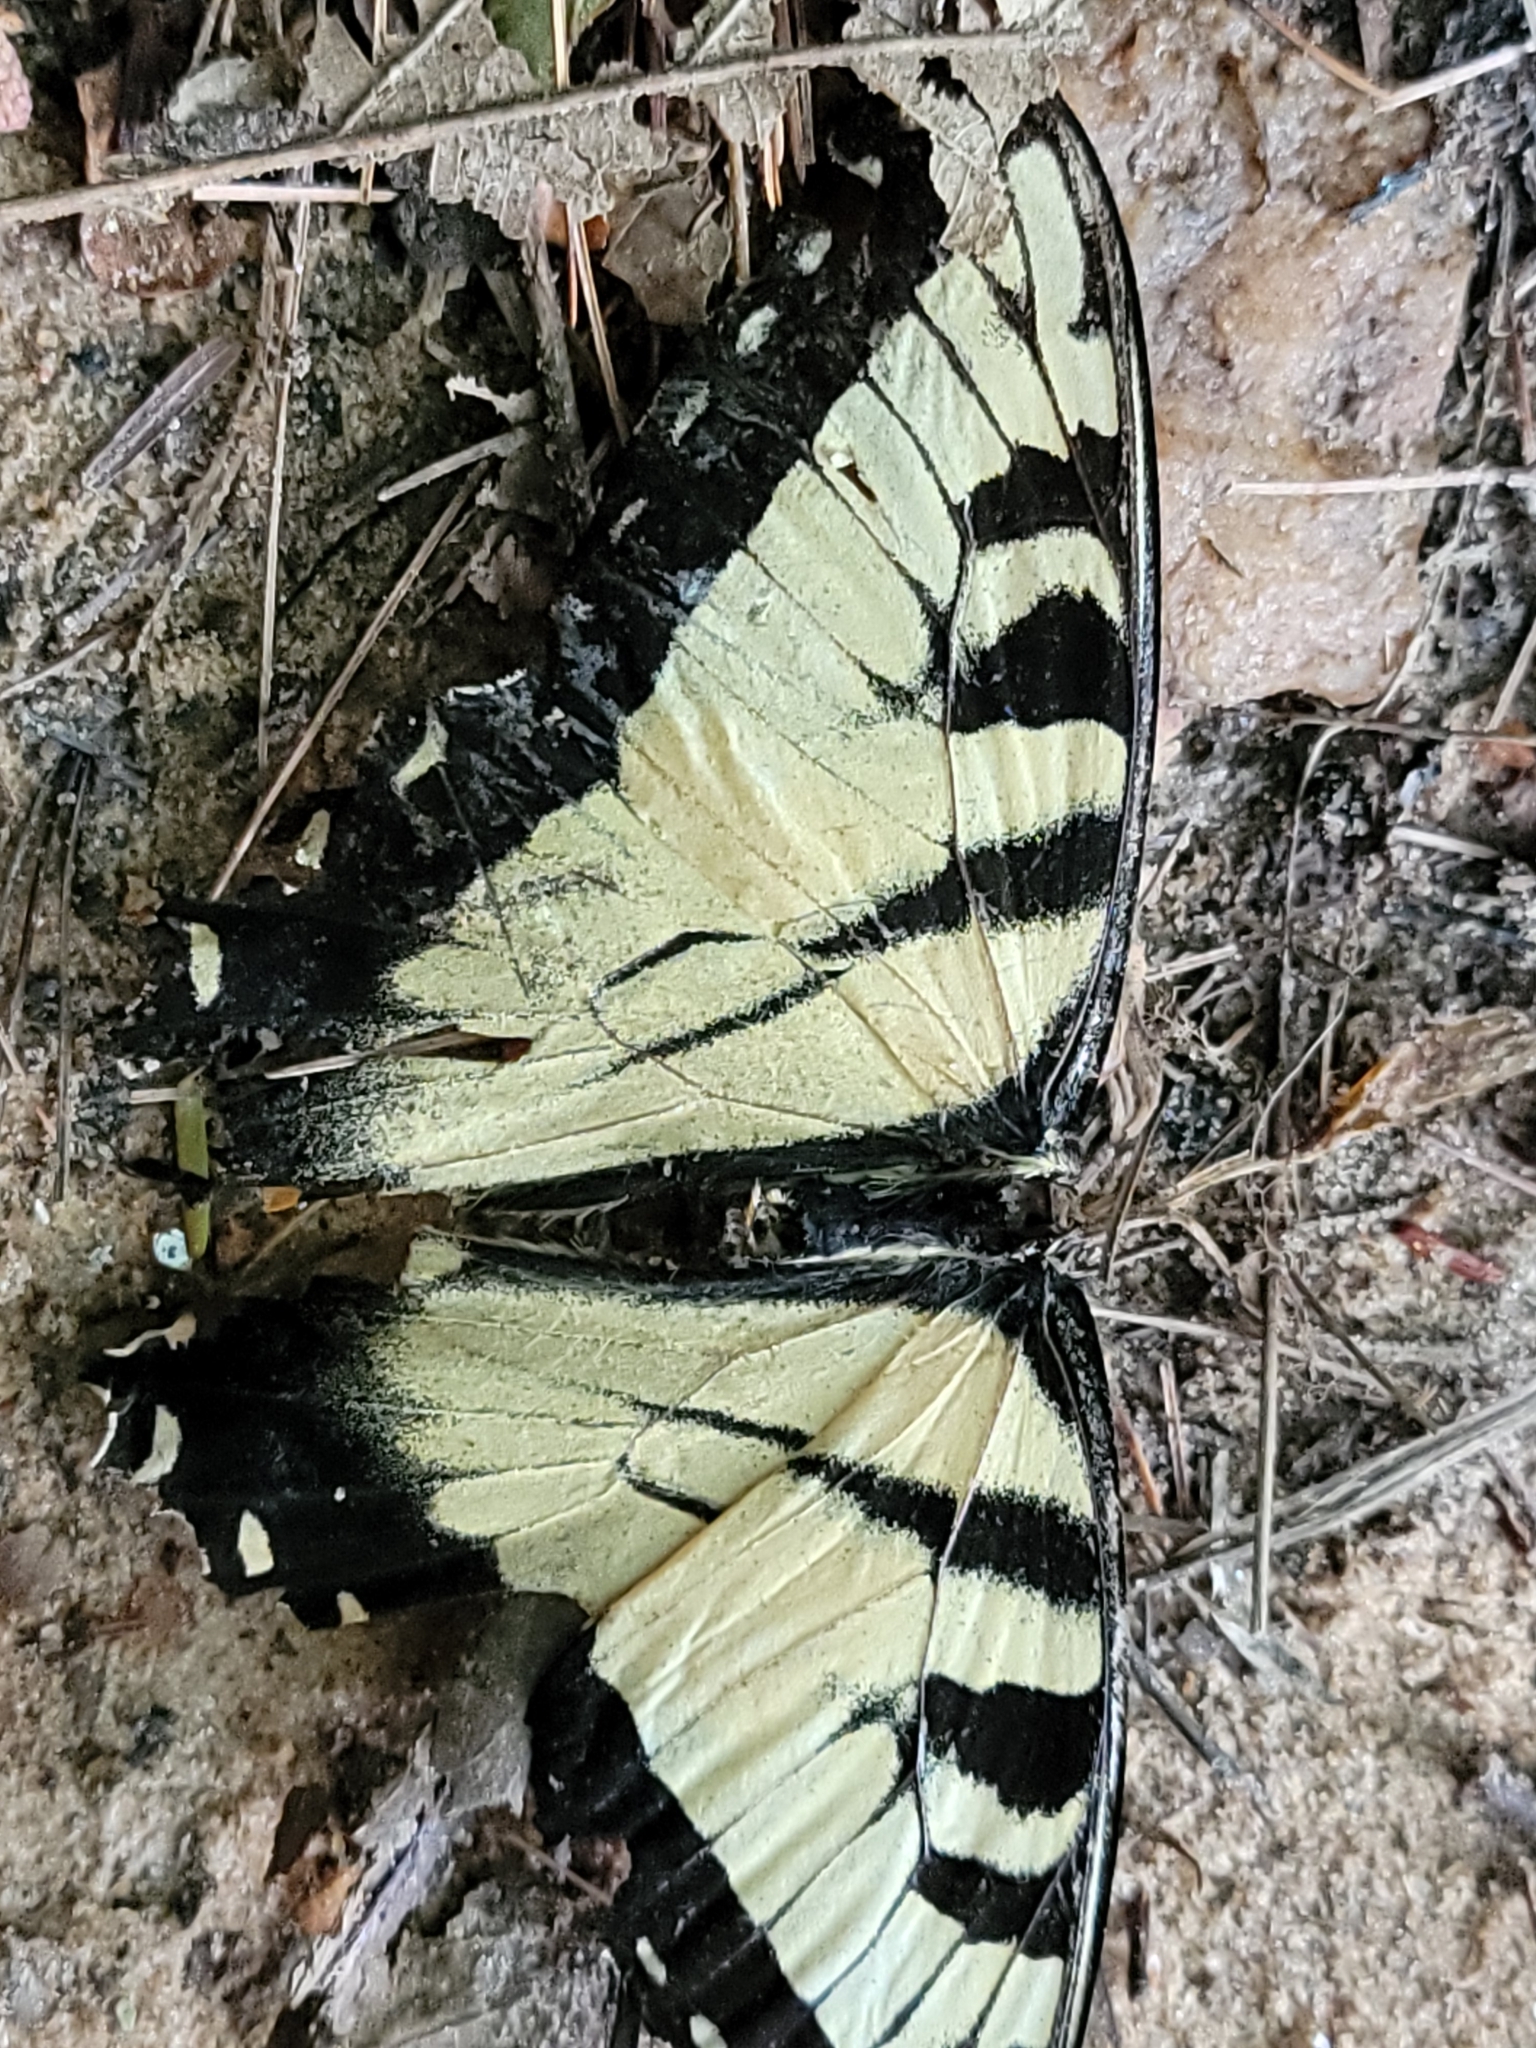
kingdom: Animalia
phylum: Arthropoda
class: Insecta
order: Lepidoptera
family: Papilionidae
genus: Papilio
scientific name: Papilio glaucus
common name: Tiger swallowtail
